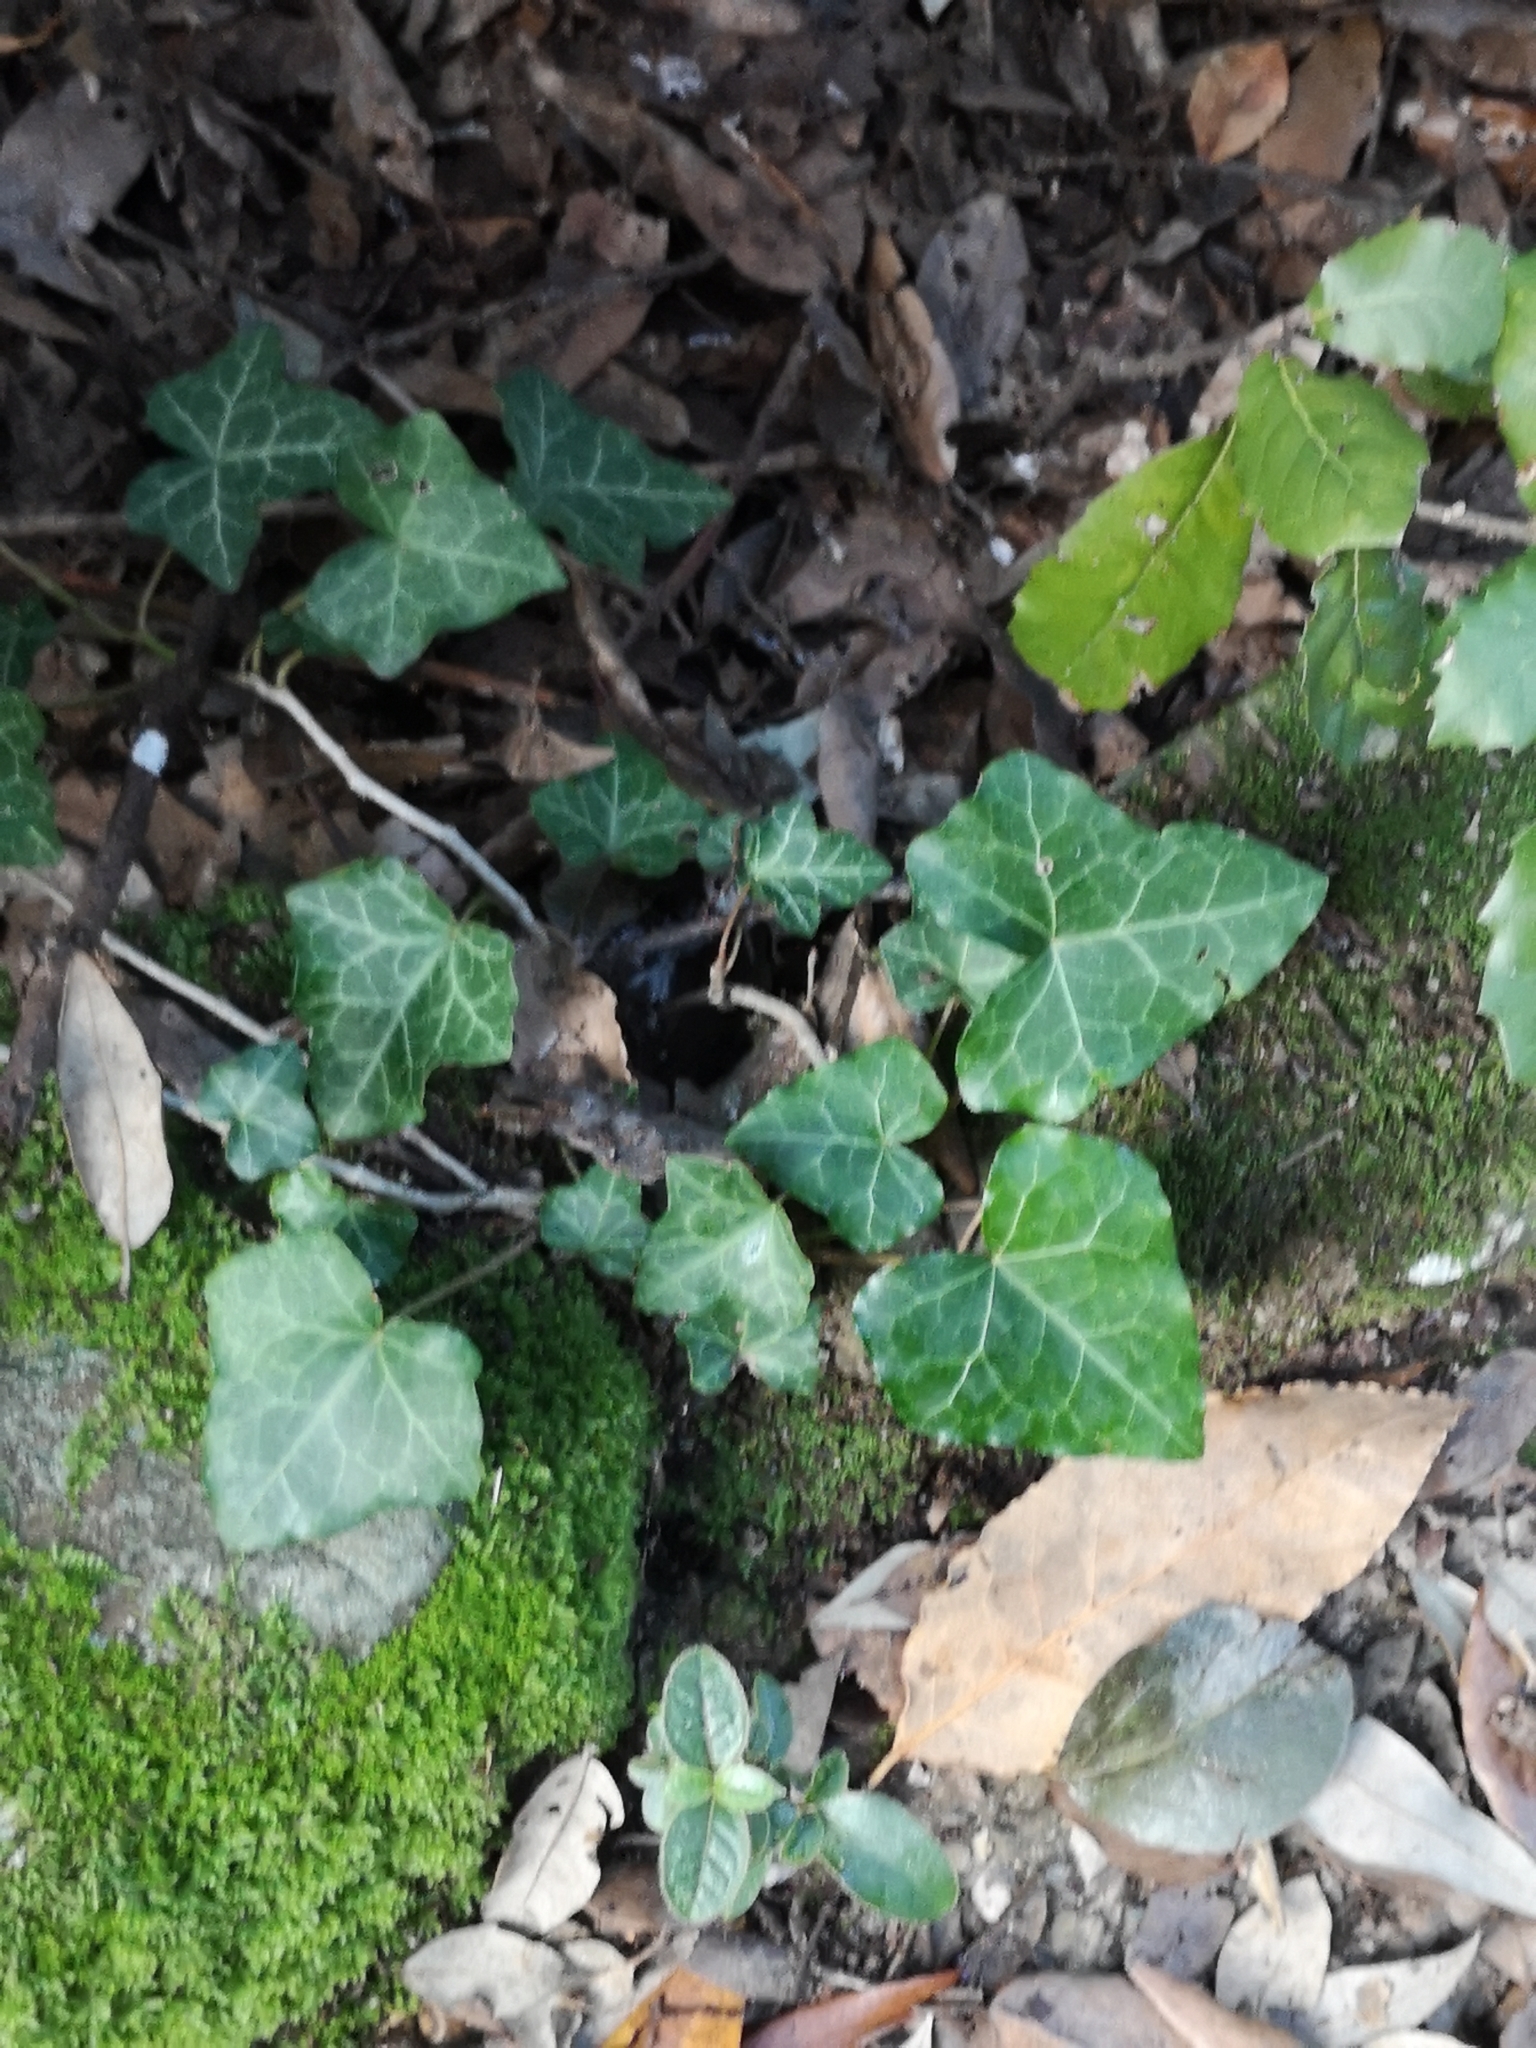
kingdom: Plantae
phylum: Tracheophyta
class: Magnoliopsida
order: Apiales
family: Araliaceae
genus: Hedera
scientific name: Hedera helix
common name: Ivy
